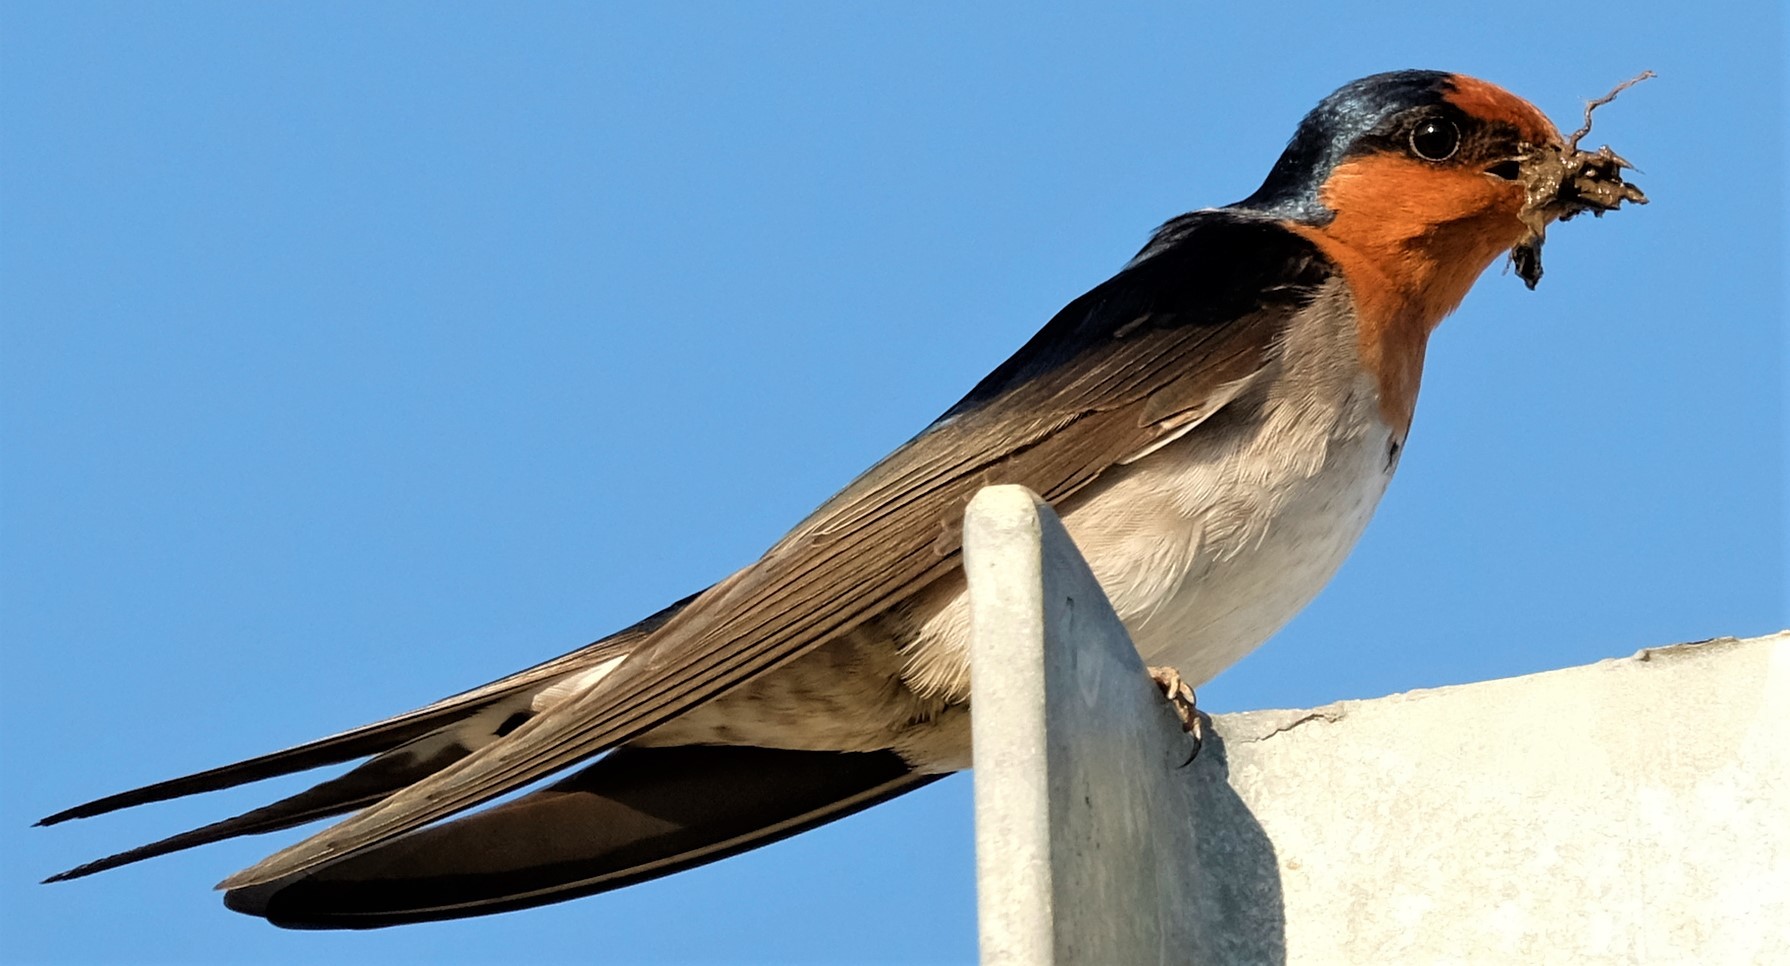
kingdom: Animalia
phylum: Chordata
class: Aves
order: Passeriformes
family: Hirundinidae
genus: Hirundo
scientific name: Hirundo neoxena
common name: Welcome swallow
